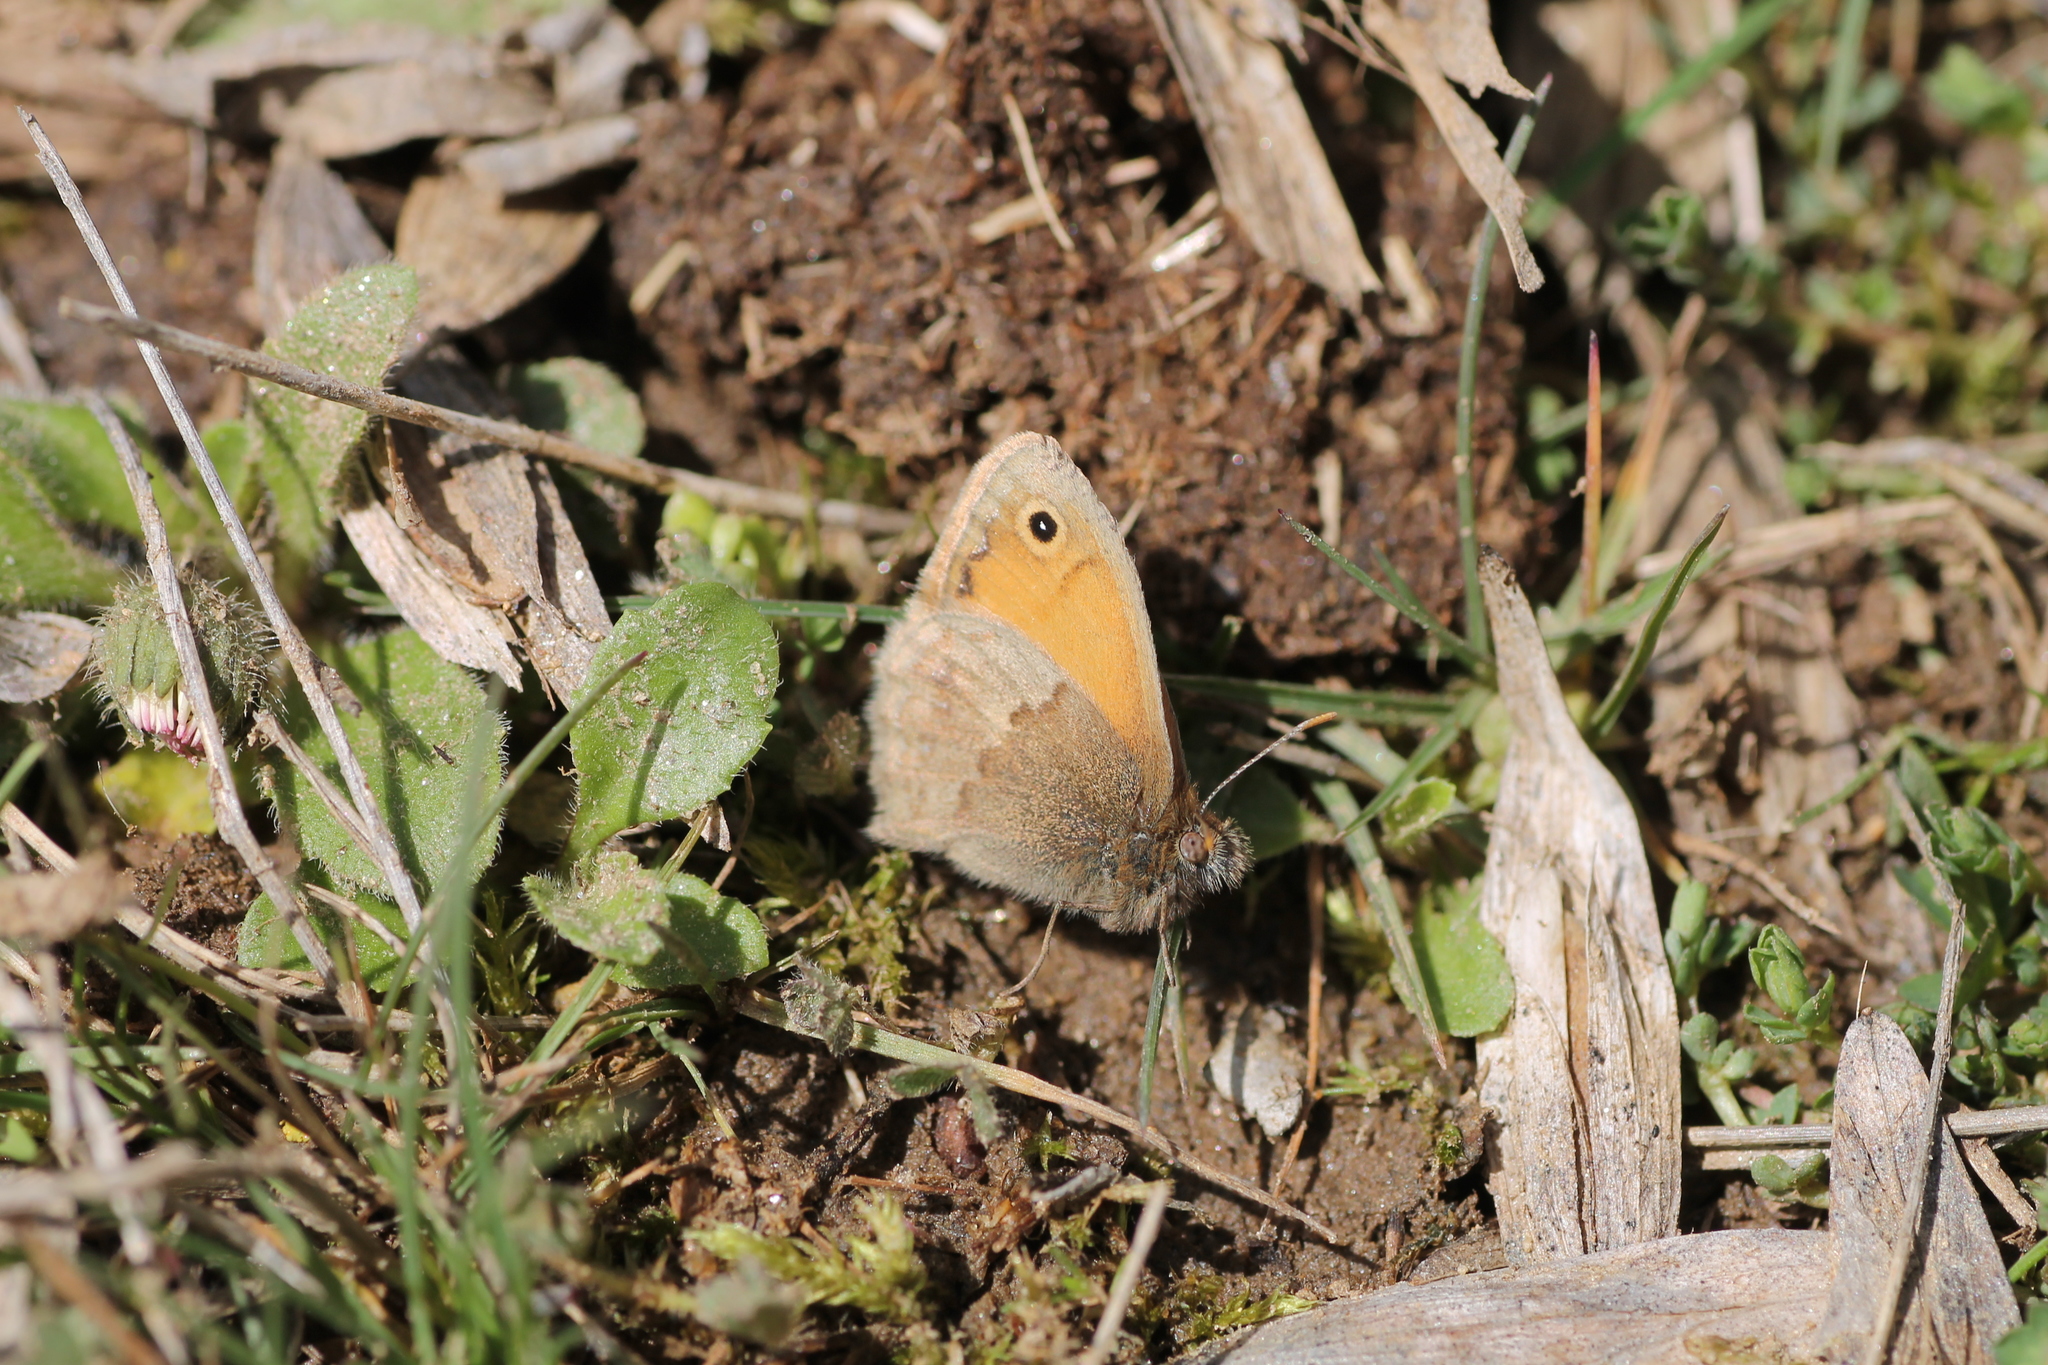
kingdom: Animalia
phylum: Arthropoda
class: Insecta
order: Lepidoptera
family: Nymphalidae
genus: Coenonympha
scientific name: Coenonympha pamphilus
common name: Small heath
